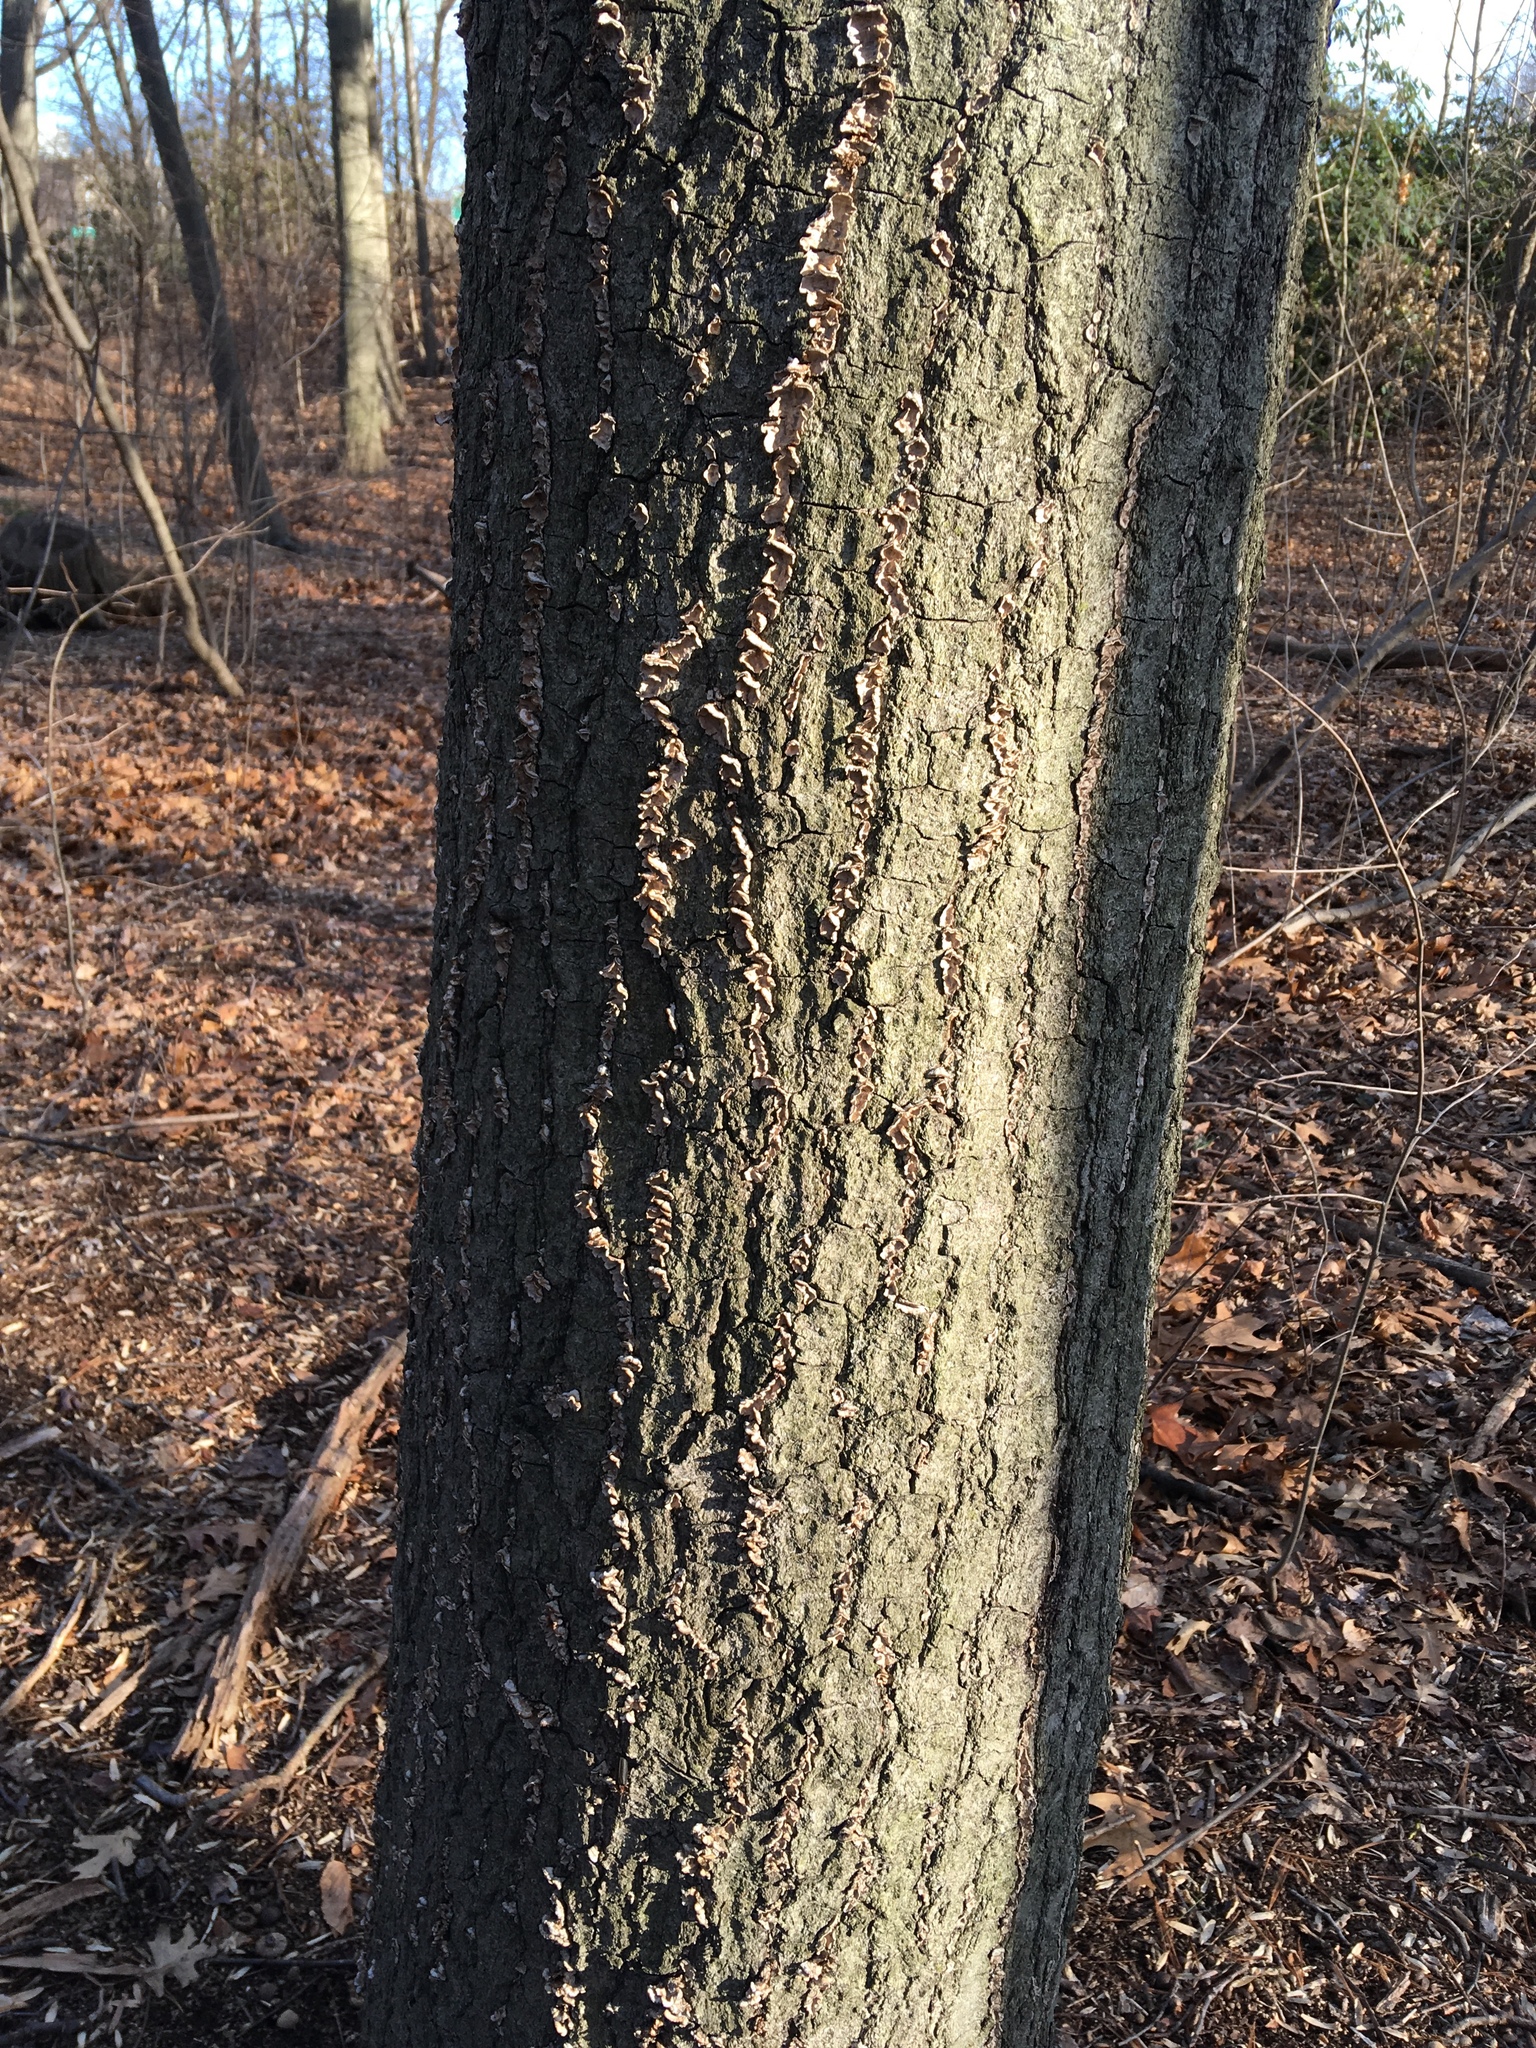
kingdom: Plantae
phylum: Tracheophyta
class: Magnoliopsida
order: Fagales
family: Fagaceae
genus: Quercus
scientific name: Quercus palustris
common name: Pin oak
